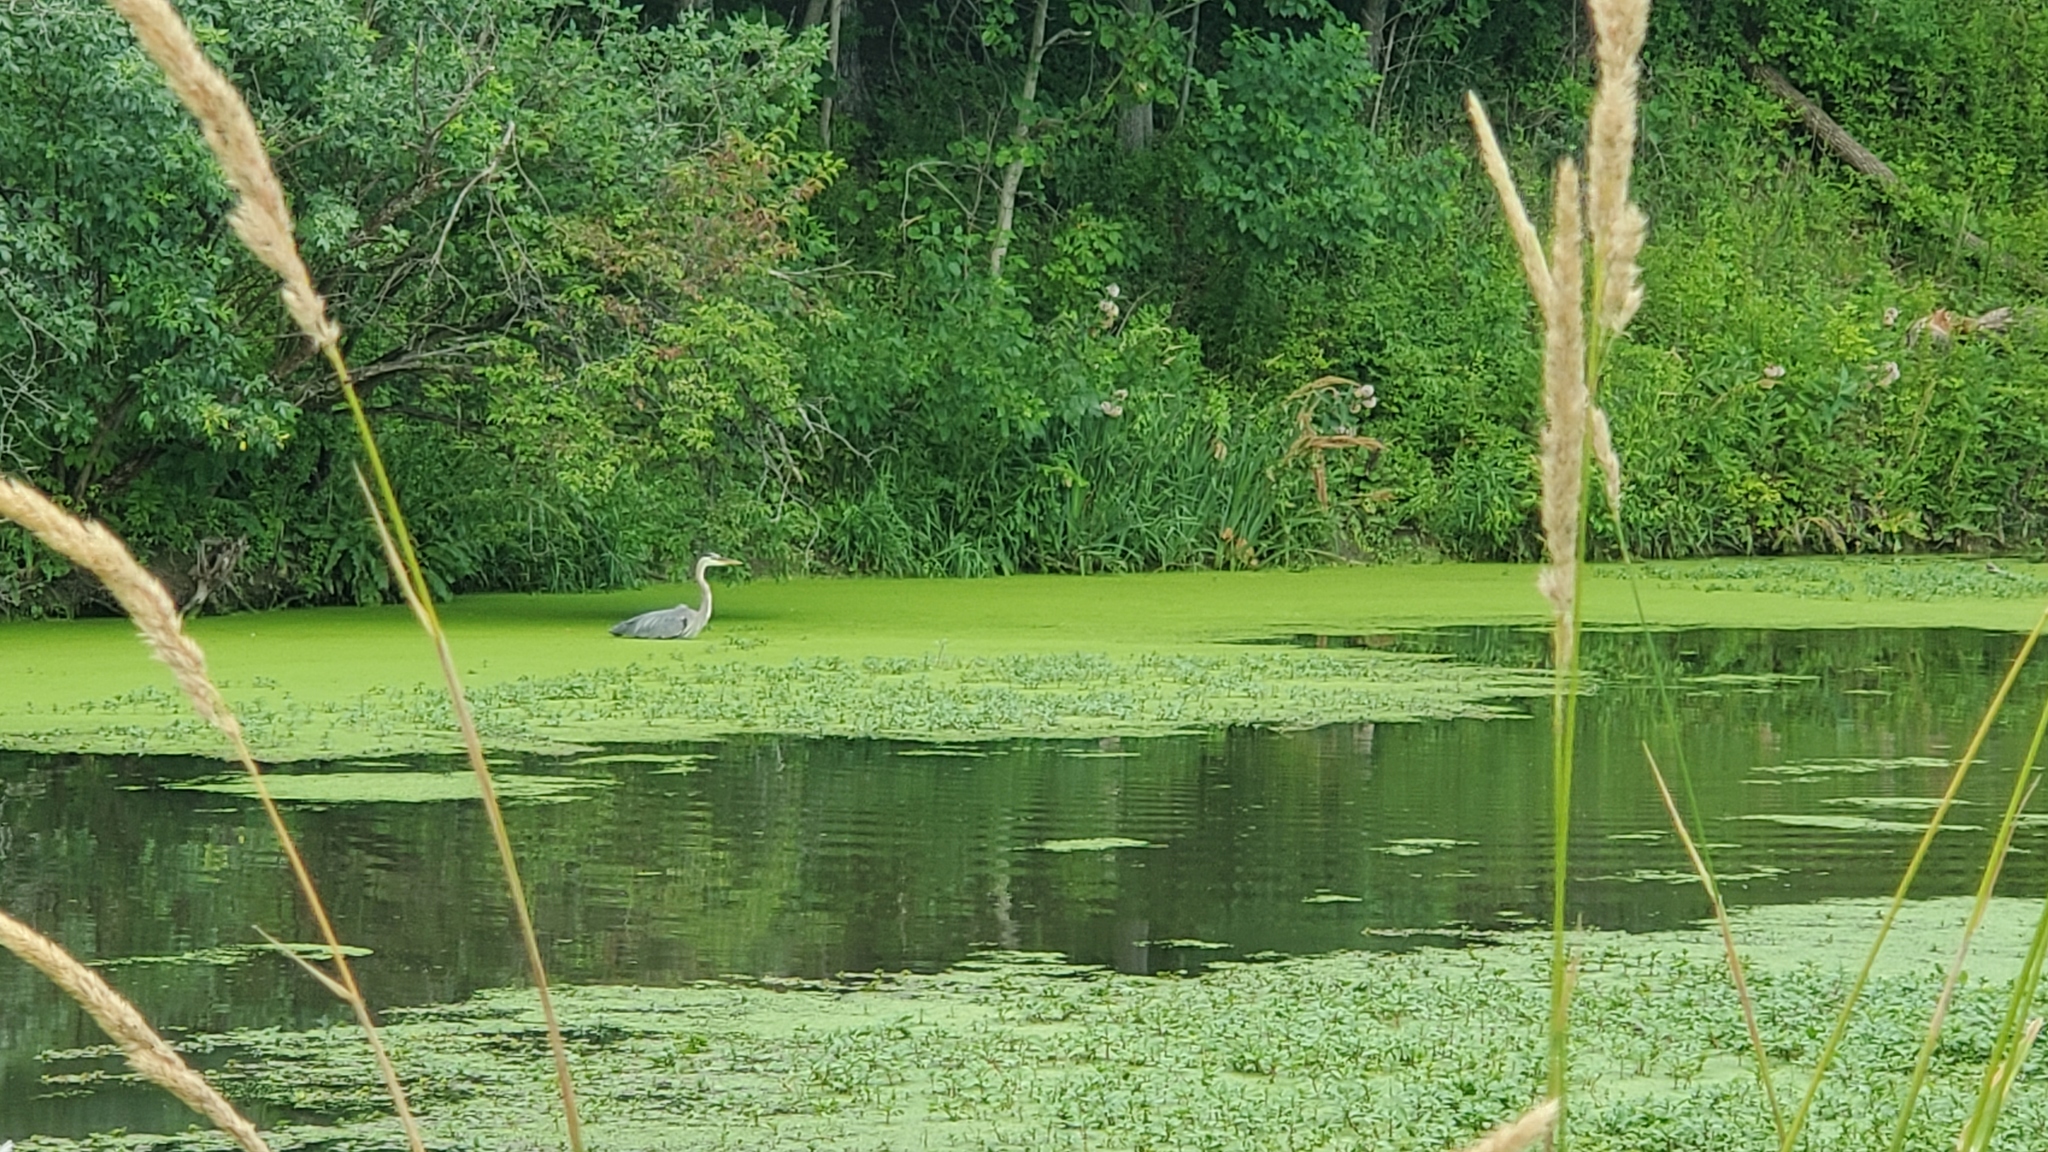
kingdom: Animalia
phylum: Chordata
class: Aves
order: Pelecaniformes
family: Ardeidae
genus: Ardea
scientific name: Ardea herodias
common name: Great blue heron
